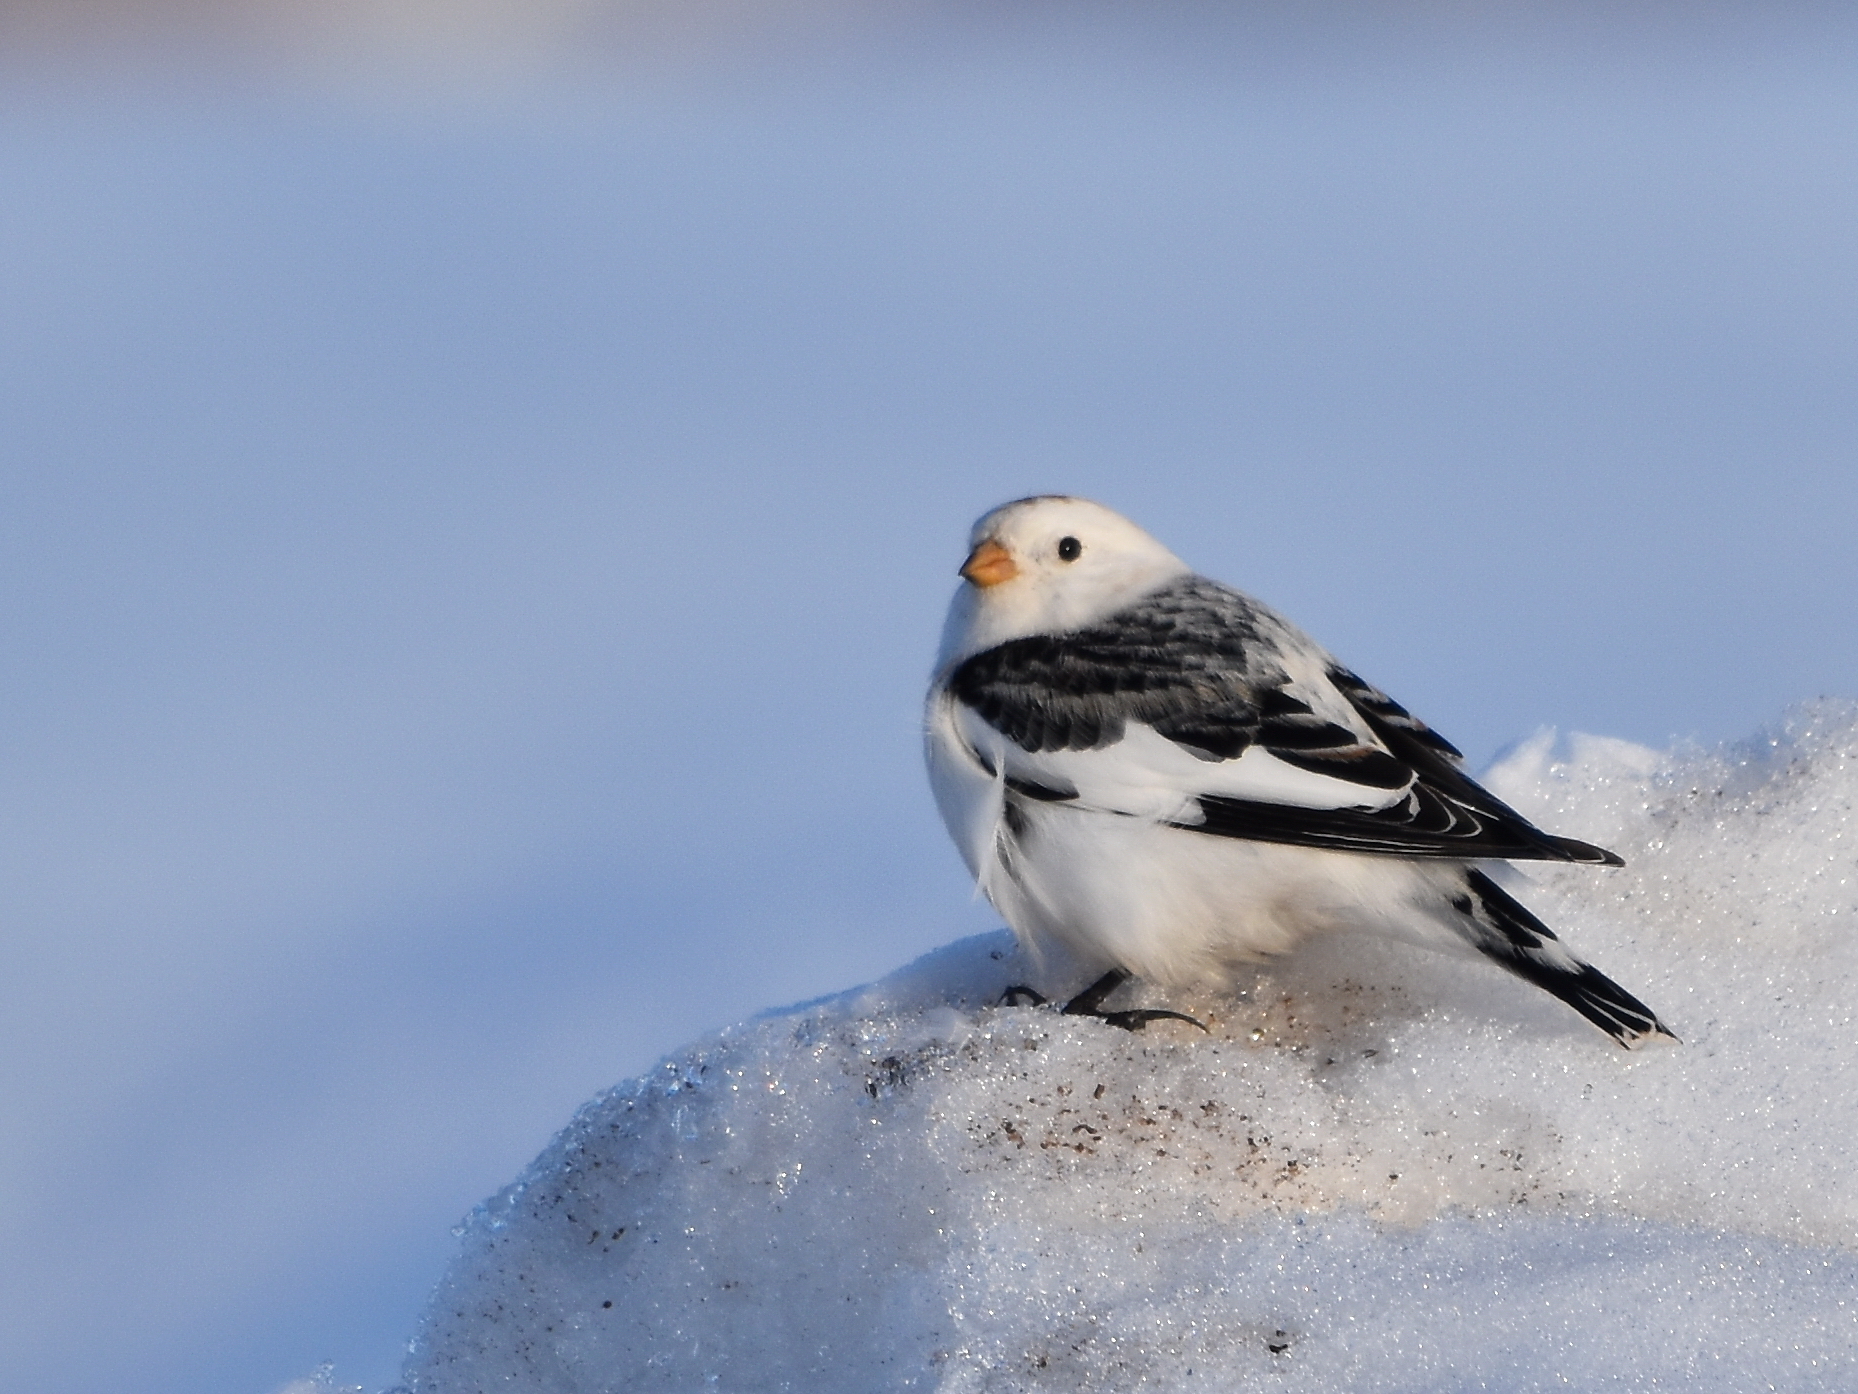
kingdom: Animalia
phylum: Chordata
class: Aves
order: Passeriformes
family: Calcariidae
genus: Plectrophenax
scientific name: Plectrophenax nivalis
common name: Snow bunting
